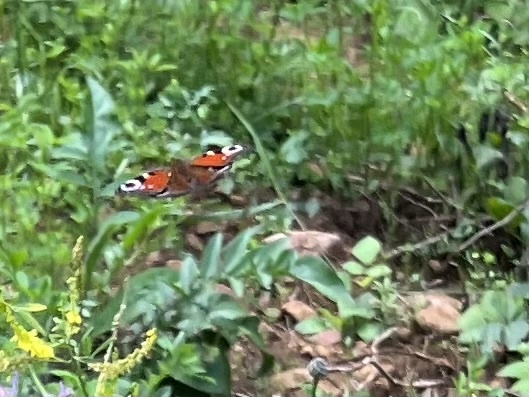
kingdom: Animalia
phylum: Arthropoda
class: Insecta
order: Lepidoptera
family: Nymphalidae
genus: Aglais
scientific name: Aglais io
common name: Peacock
